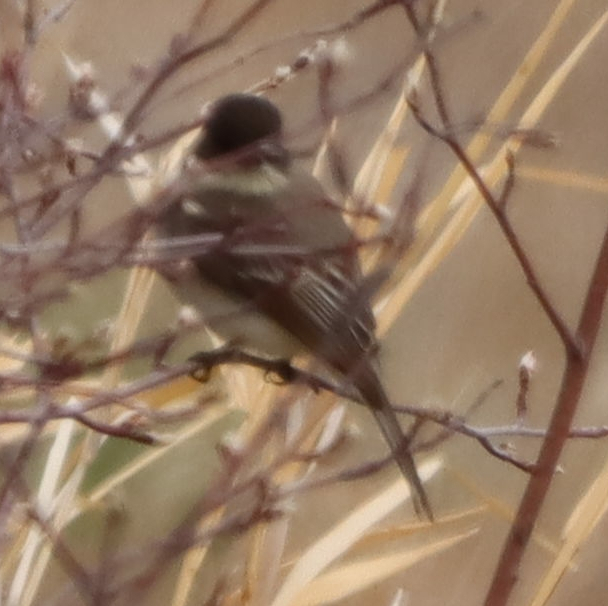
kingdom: Animalia
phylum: Chordata
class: Aves
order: Passeriformes
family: Tyrannidae
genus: Sayornis
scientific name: Sayornis phoebe
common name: Eastern phoebe
